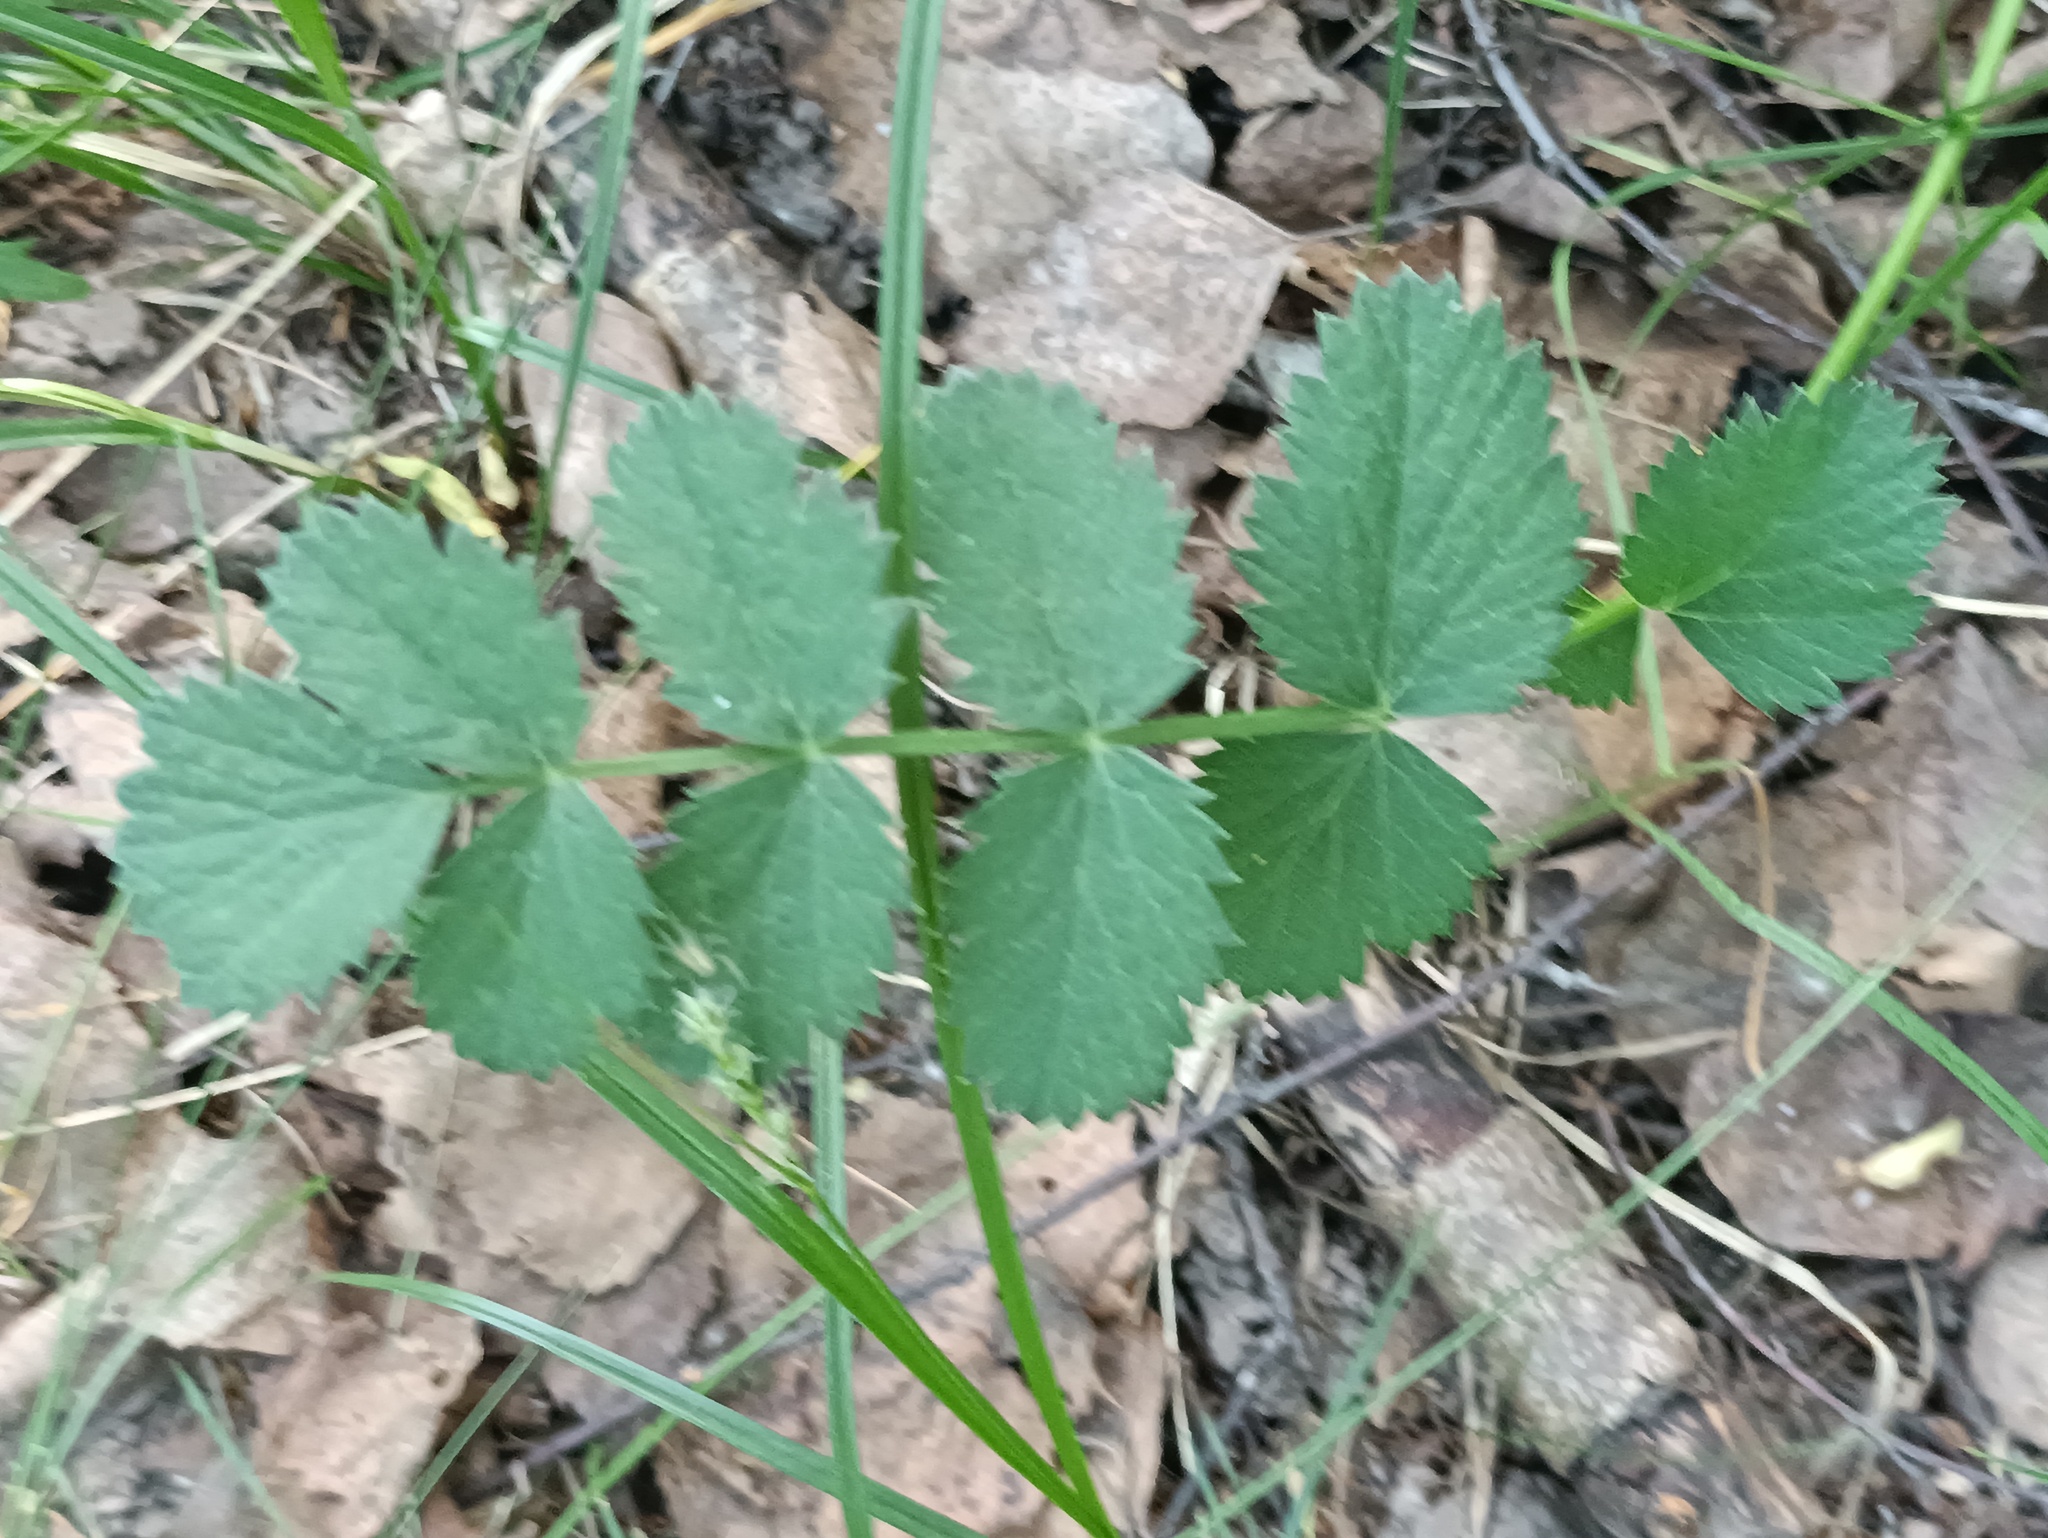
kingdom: Plantae
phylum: Tracheophyta
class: Magnoliopsida
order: Apiales
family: Apiaceae
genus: Pimpinella
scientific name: Pimpinella saxifraga
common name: Burnet-saxifrage
